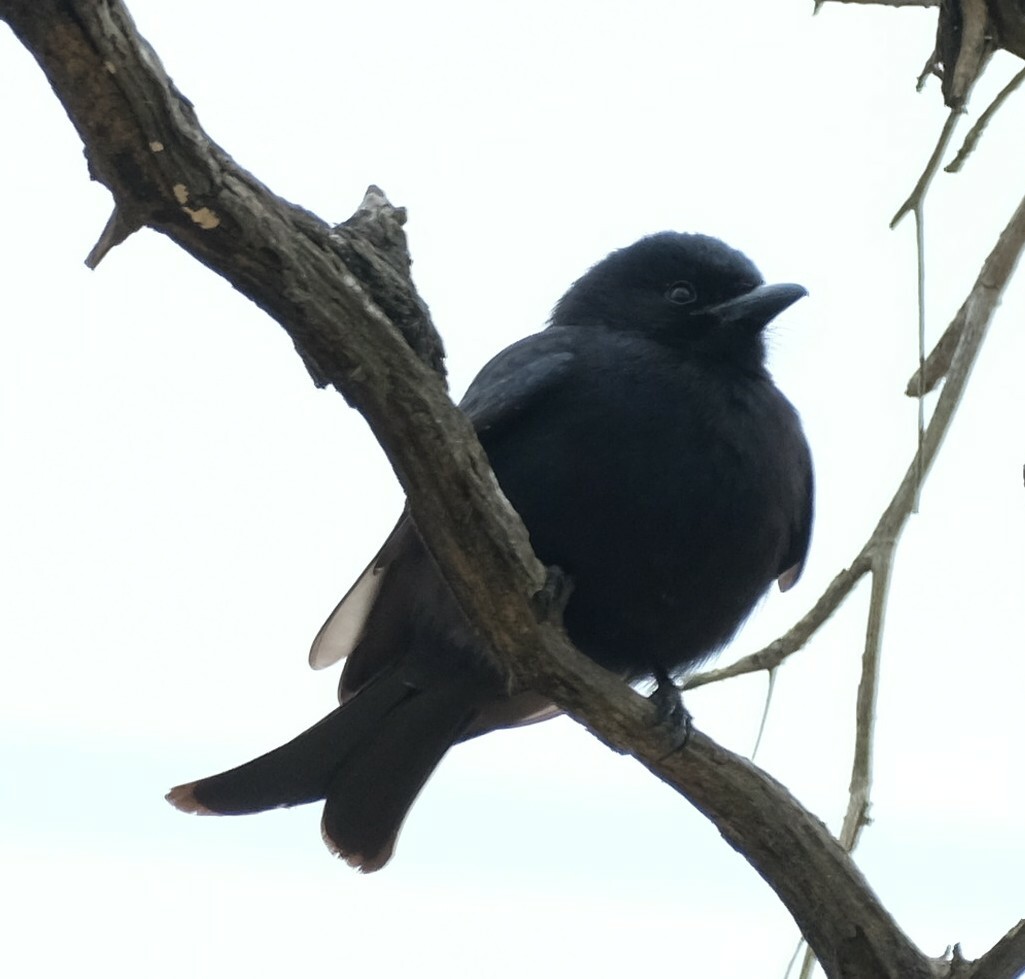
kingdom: Animalia
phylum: Chordata
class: Aves
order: Passeriformes
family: Dicruridae
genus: Dicrurus
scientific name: Dicrurus adsimilis
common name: Fork-tailed drongo
